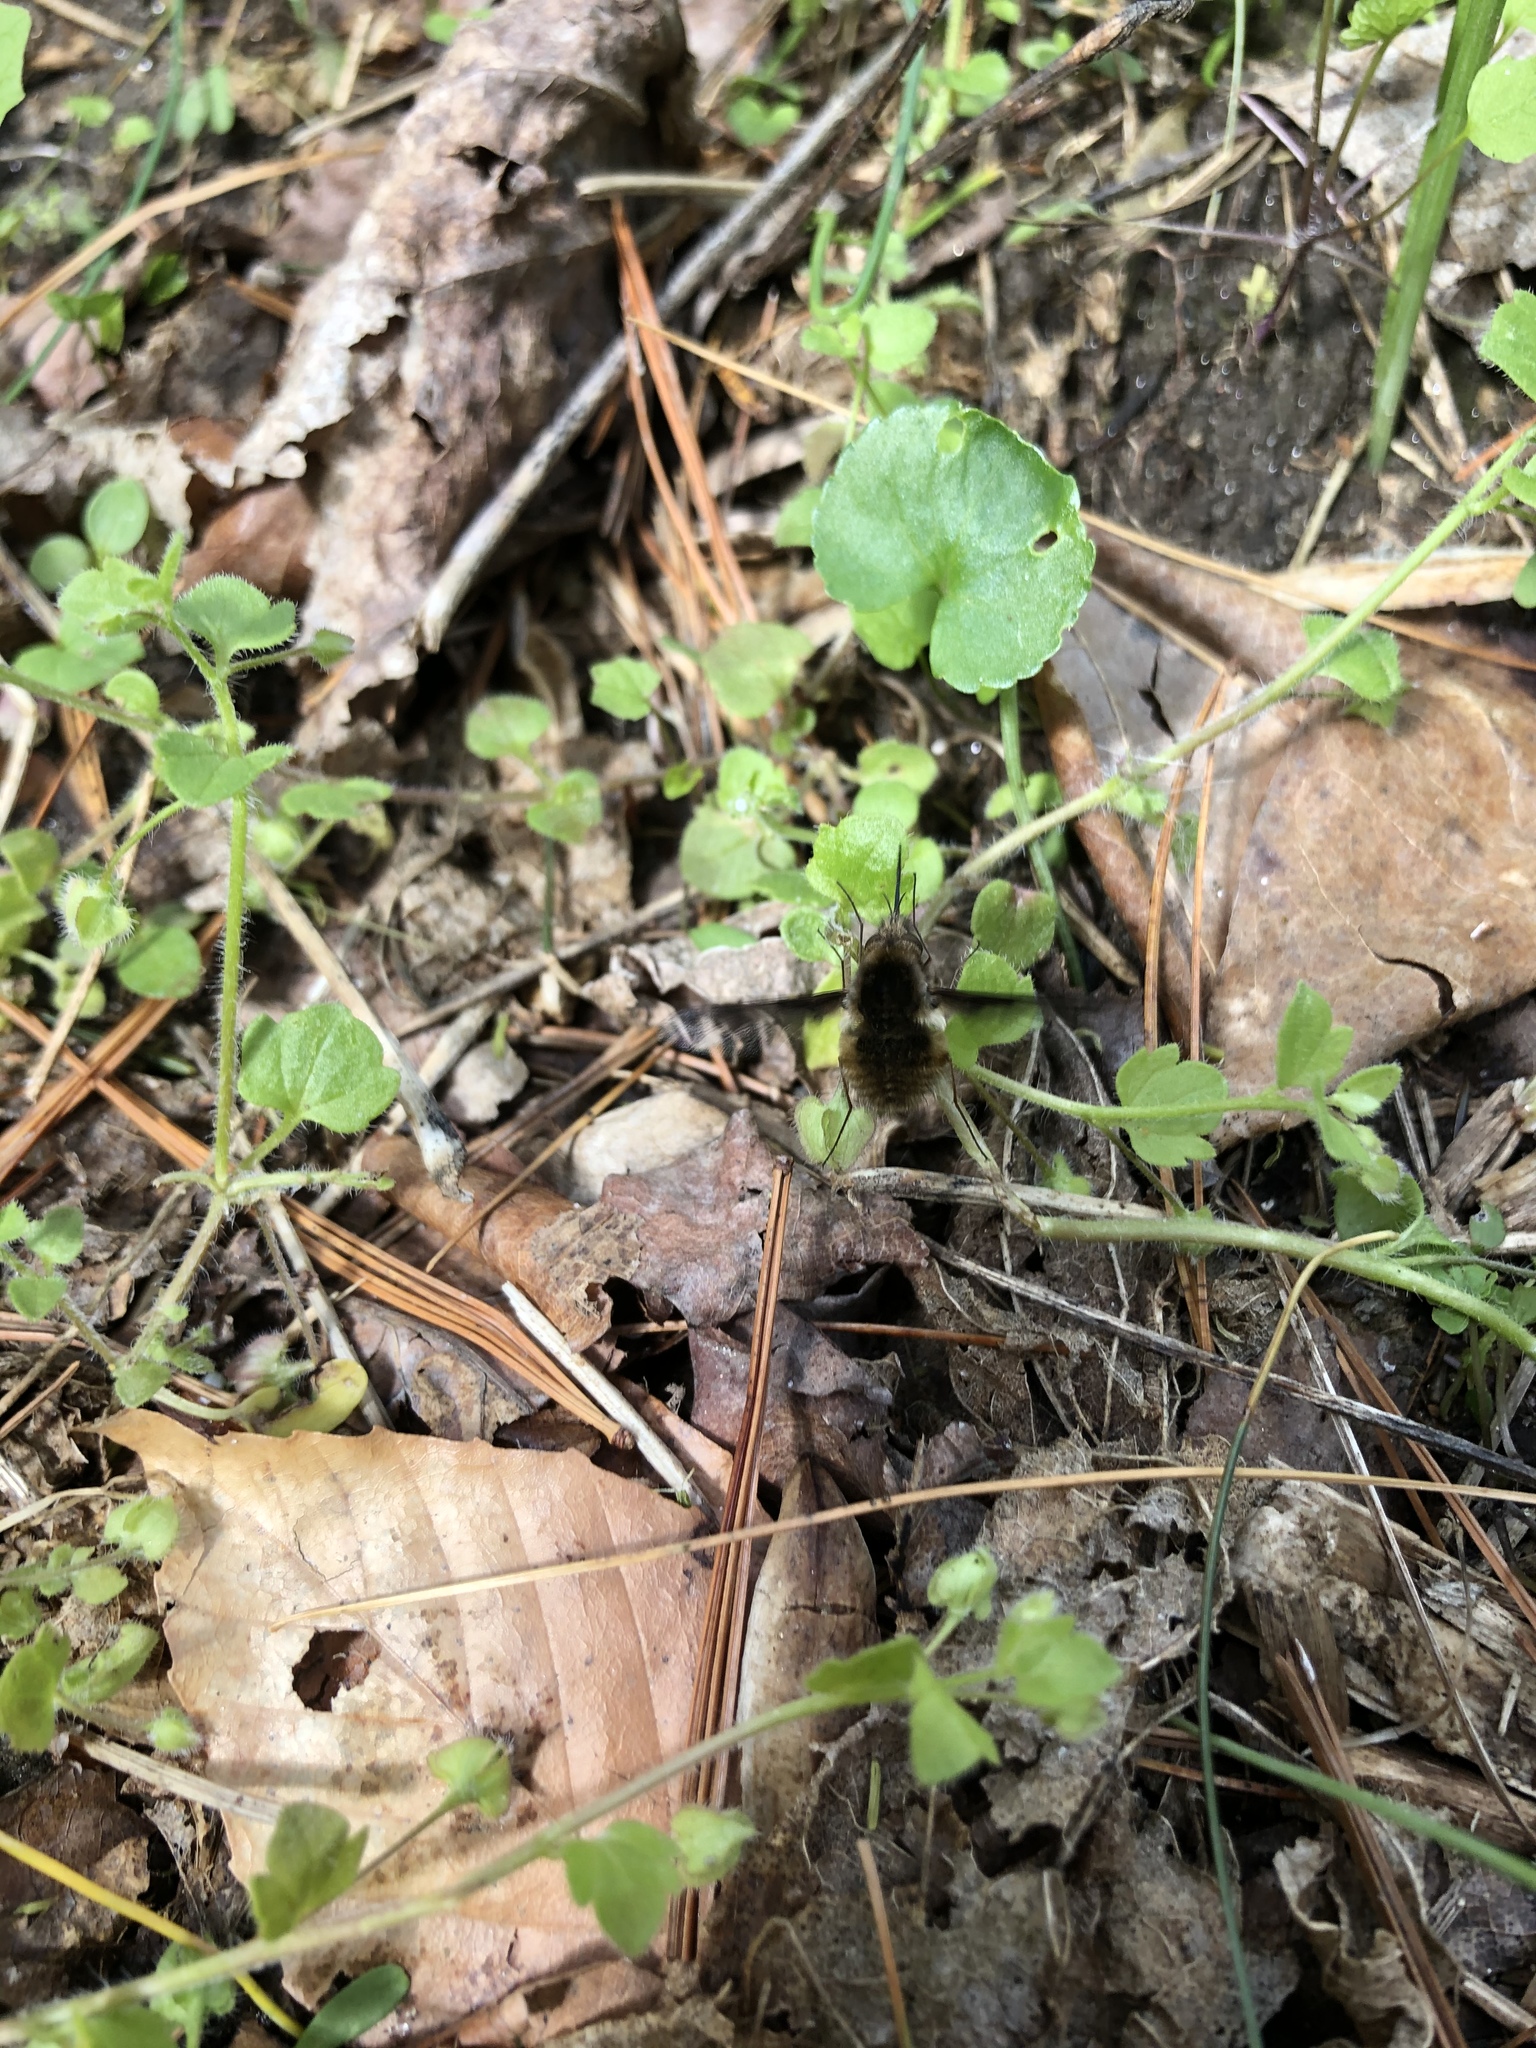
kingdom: Animalia
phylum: Arthropoda
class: Insecta
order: Diptera
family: Bombyliidae
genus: Bombylius
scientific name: Bombylius major
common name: Bee fly
